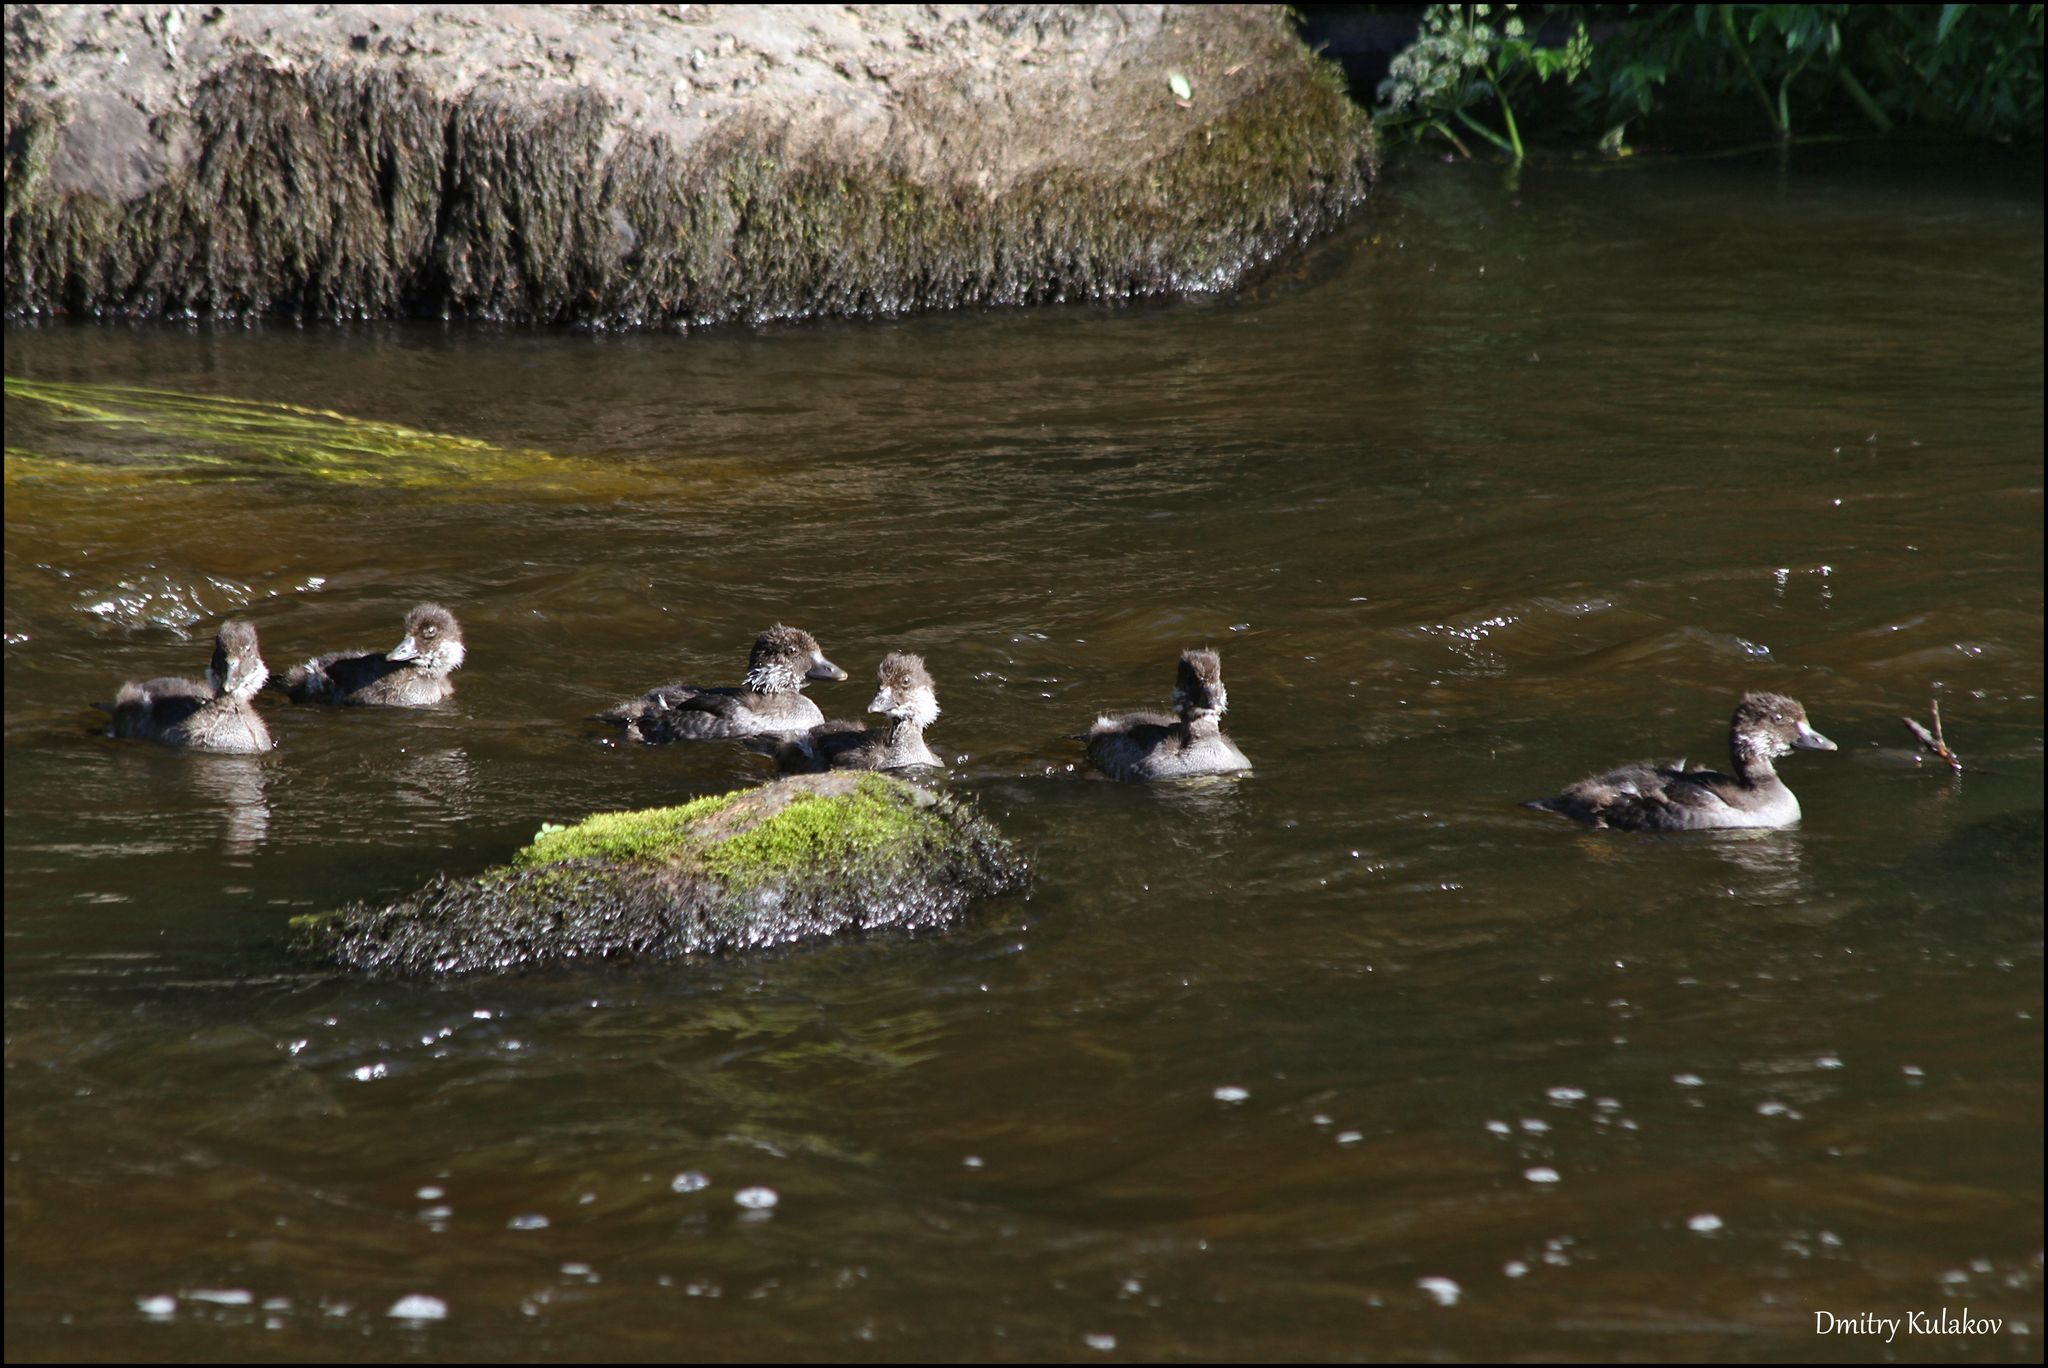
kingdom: Animalia
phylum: Chordata
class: Aves
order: Anseriformes
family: Anatidae
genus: Bucephala
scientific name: Bucephala clangula
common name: Common goldeneye
